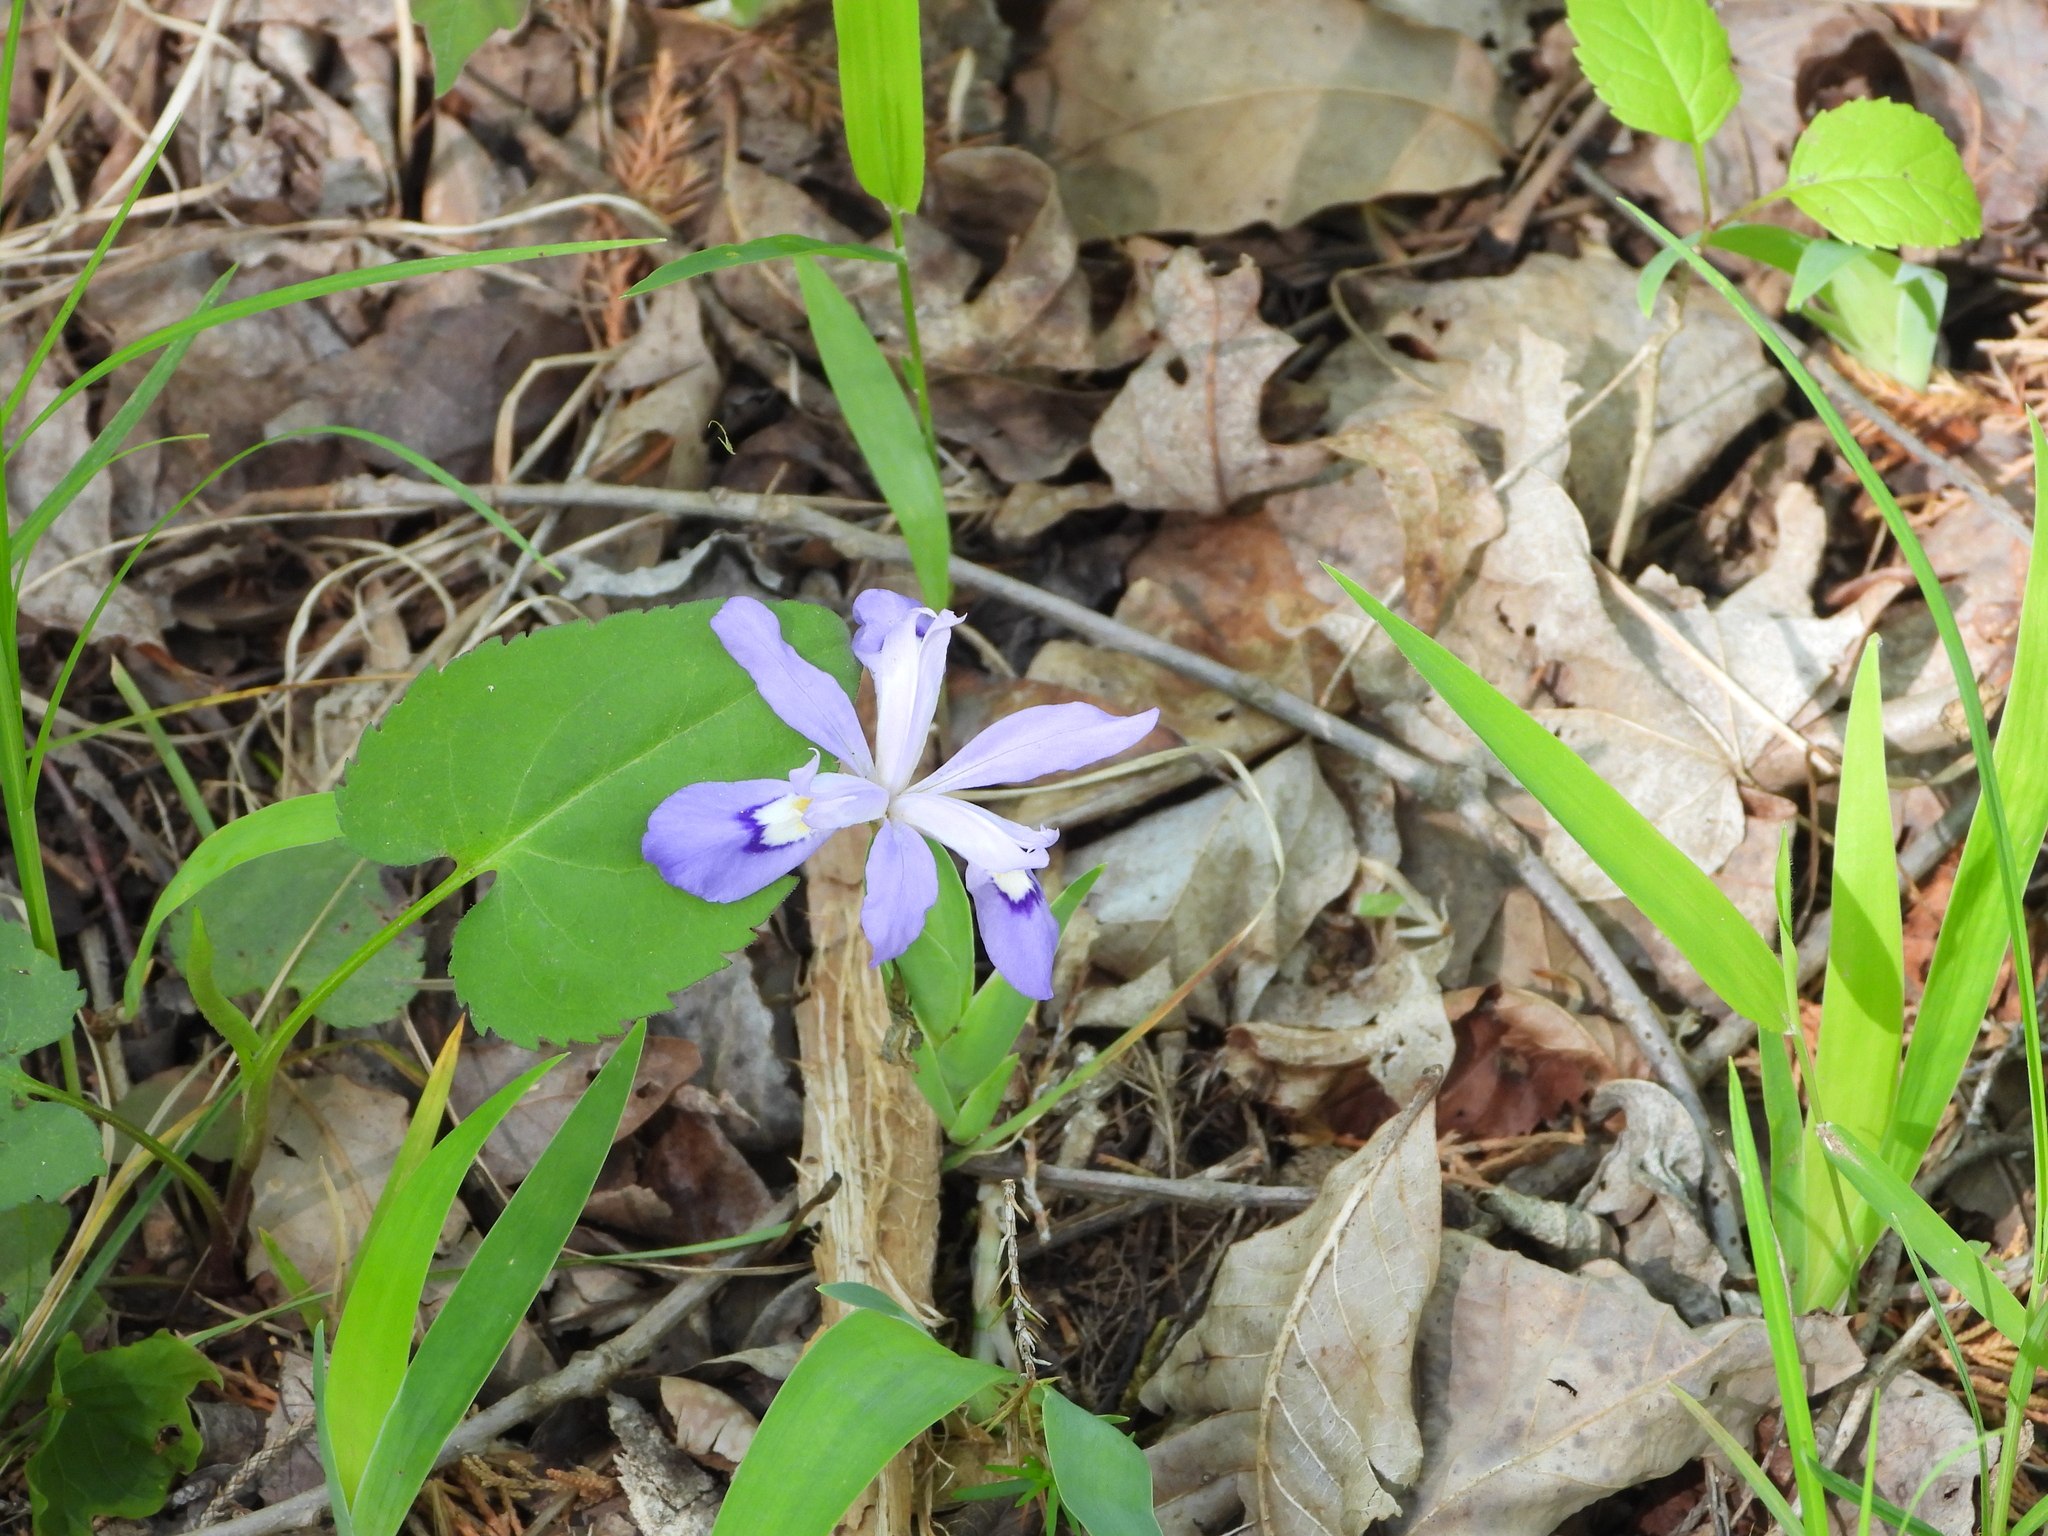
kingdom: Plantae
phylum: Tracheophyta
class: Liliopsida
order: Asparagales
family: Iridaceae
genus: Iris
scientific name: Iris cristata
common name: Crested iris
